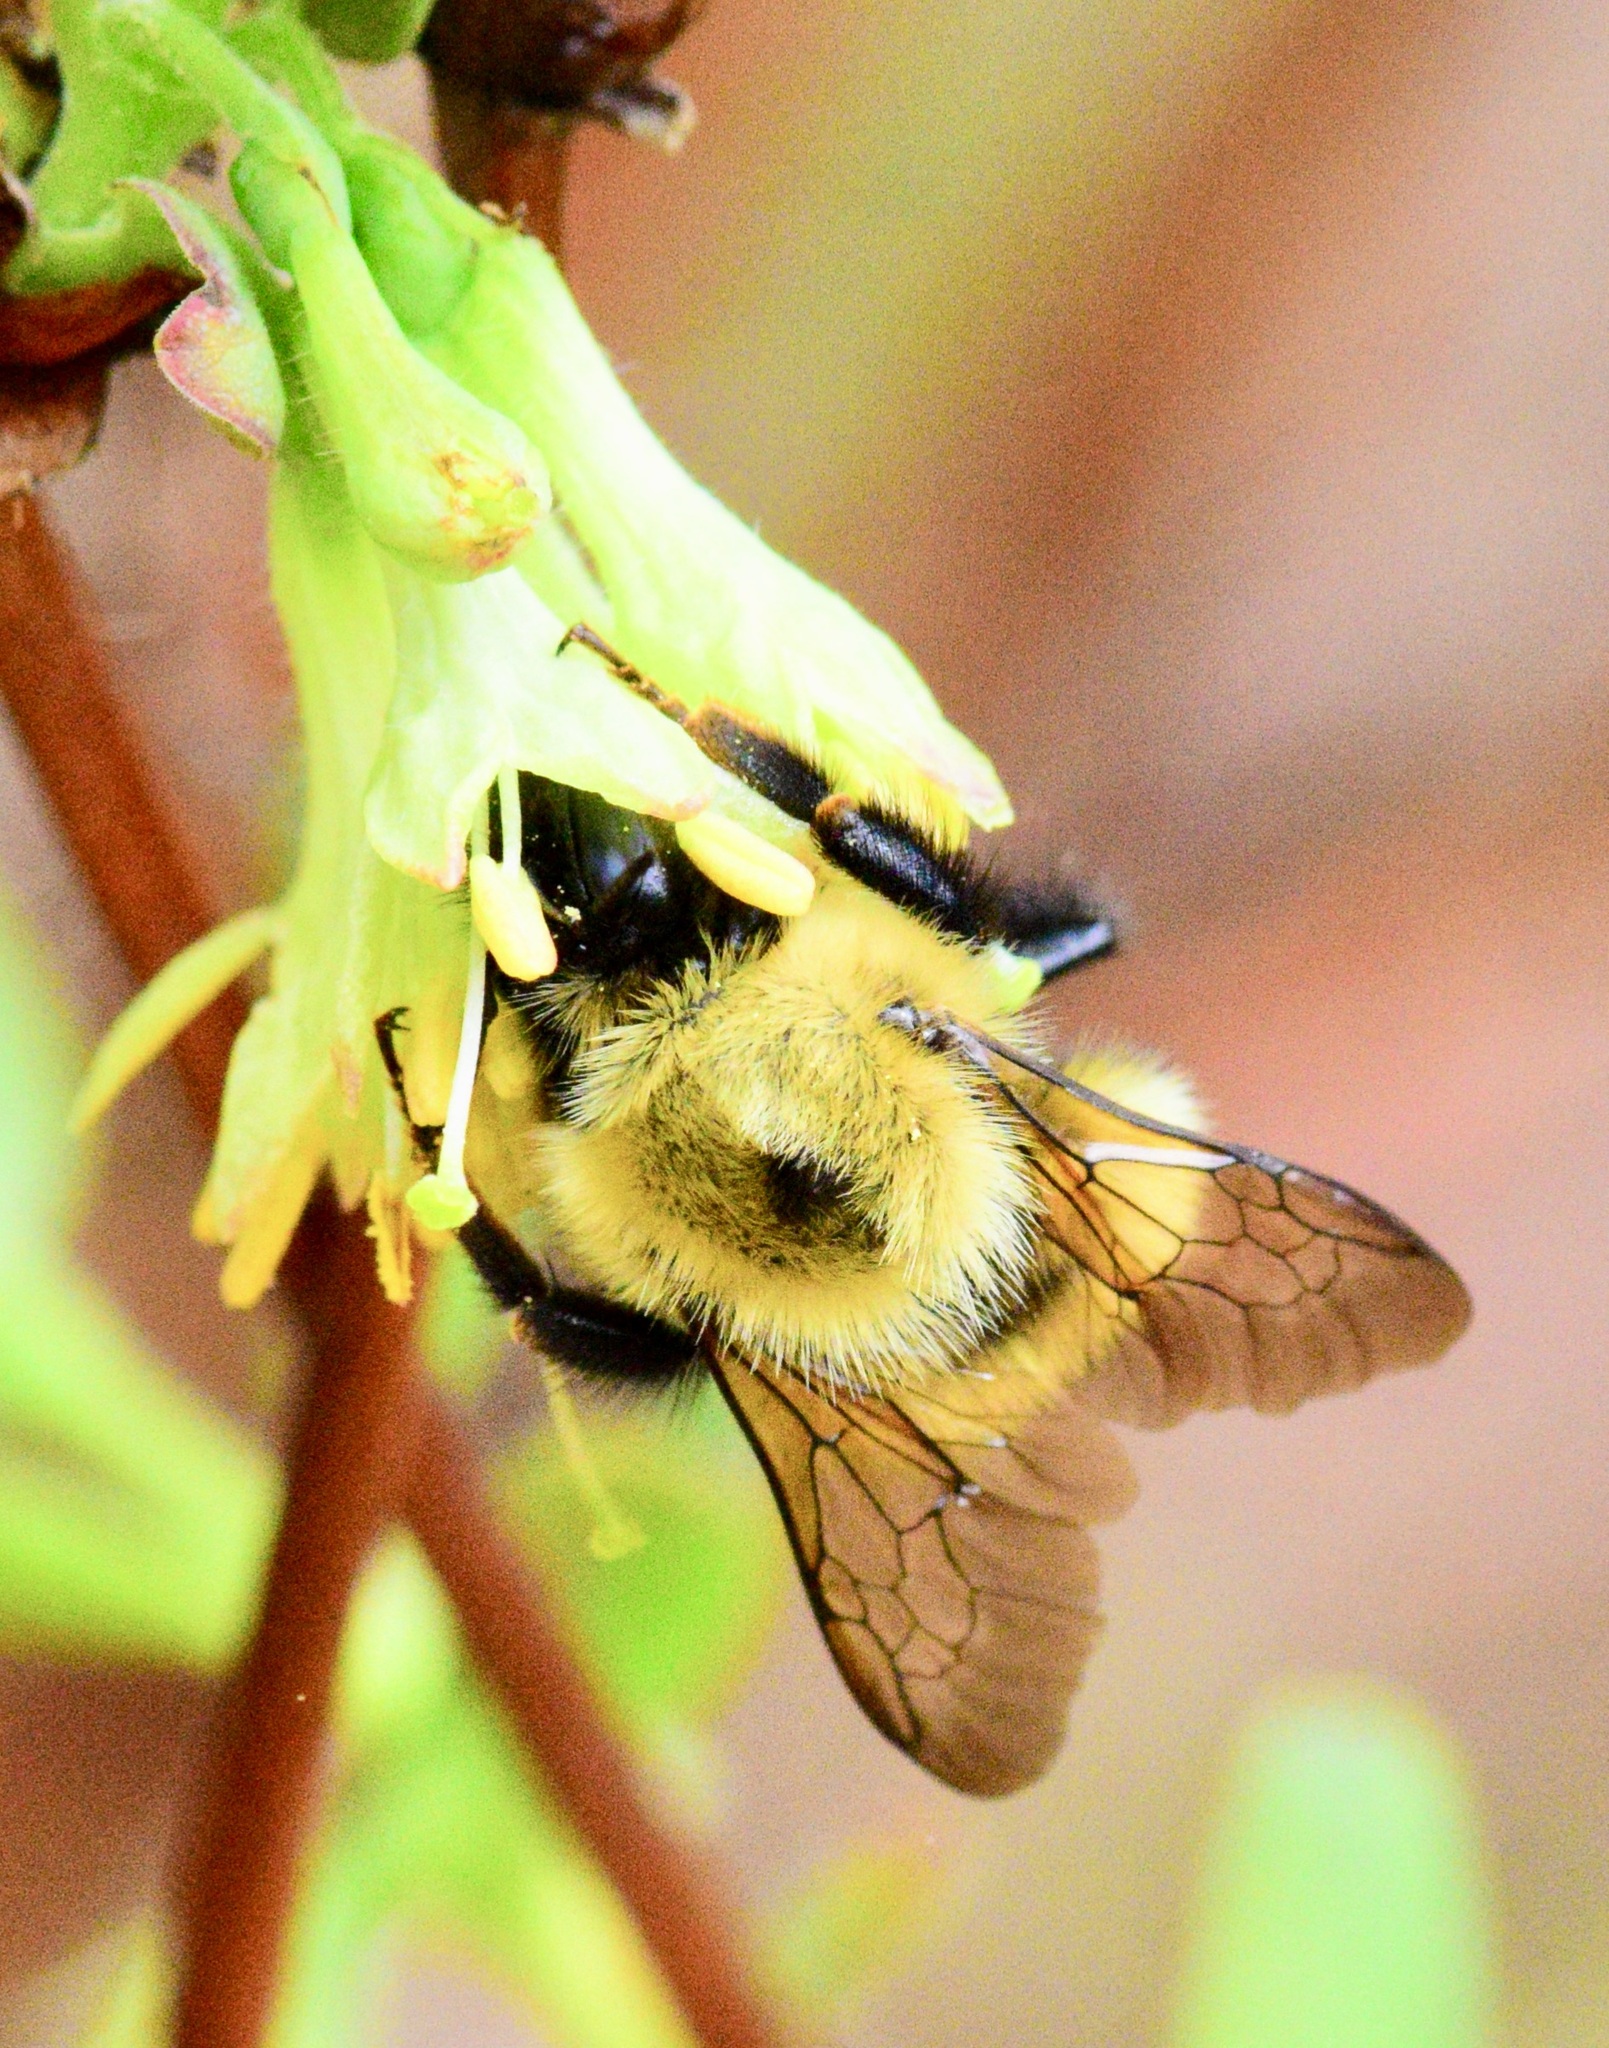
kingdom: Animalia
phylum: Arthropoda
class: Insecta
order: Hymenoptera
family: Apidae
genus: Bombus
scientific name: Bombus perplexus
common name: Confusing bumble bee
